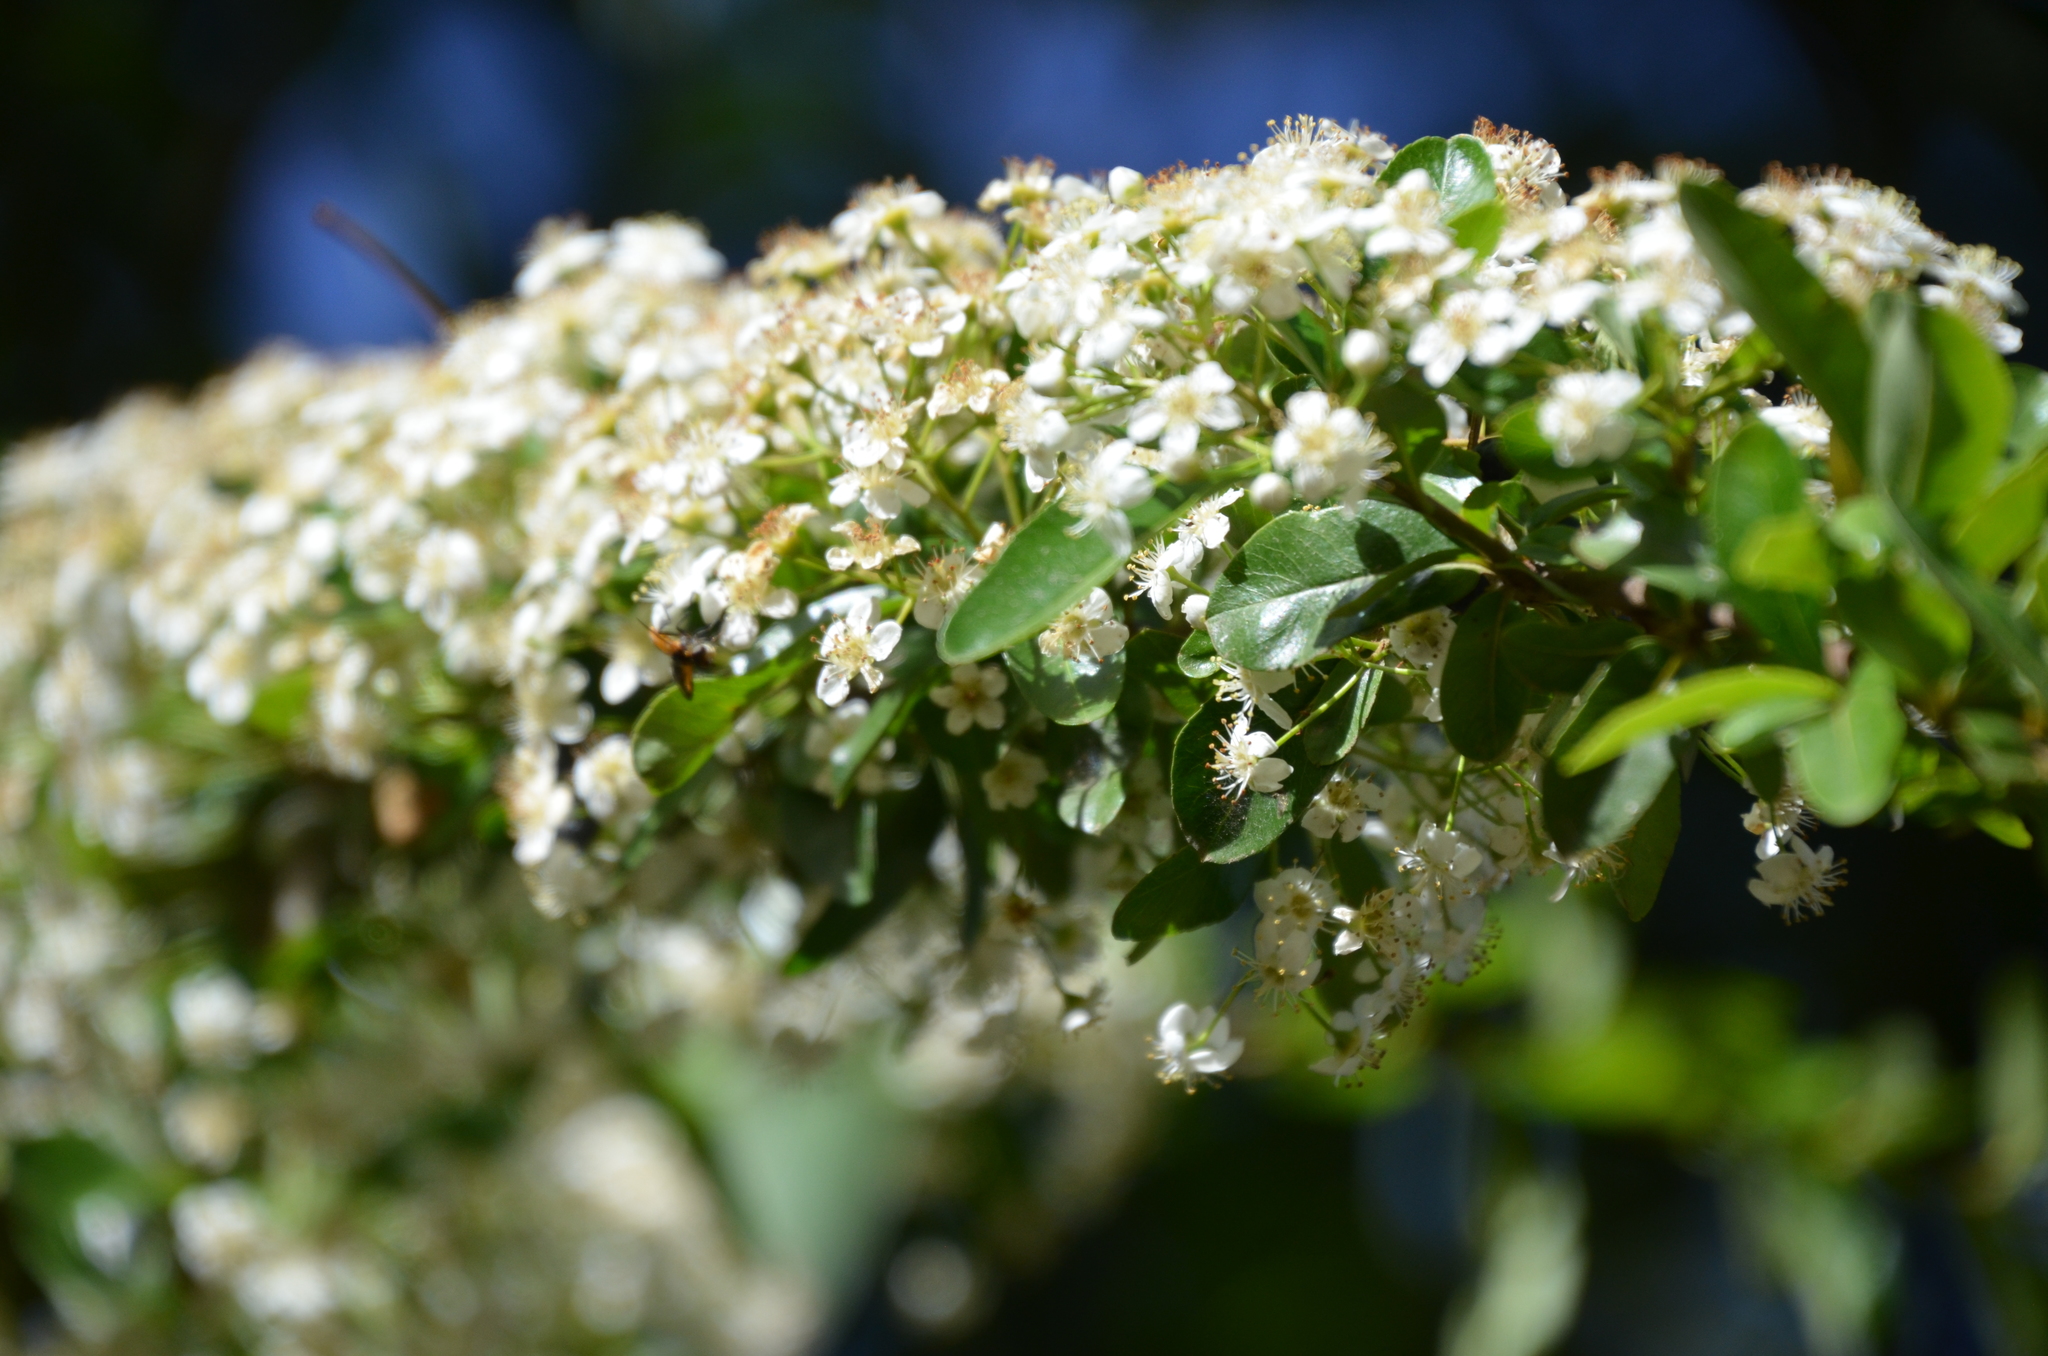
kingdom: Plantae
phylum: Tracheophyta
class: Magnoliopsida
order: Rosales
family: Rosaceae
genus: Pyracantha
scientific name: Pyracantha coccinea
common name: Firethorn
